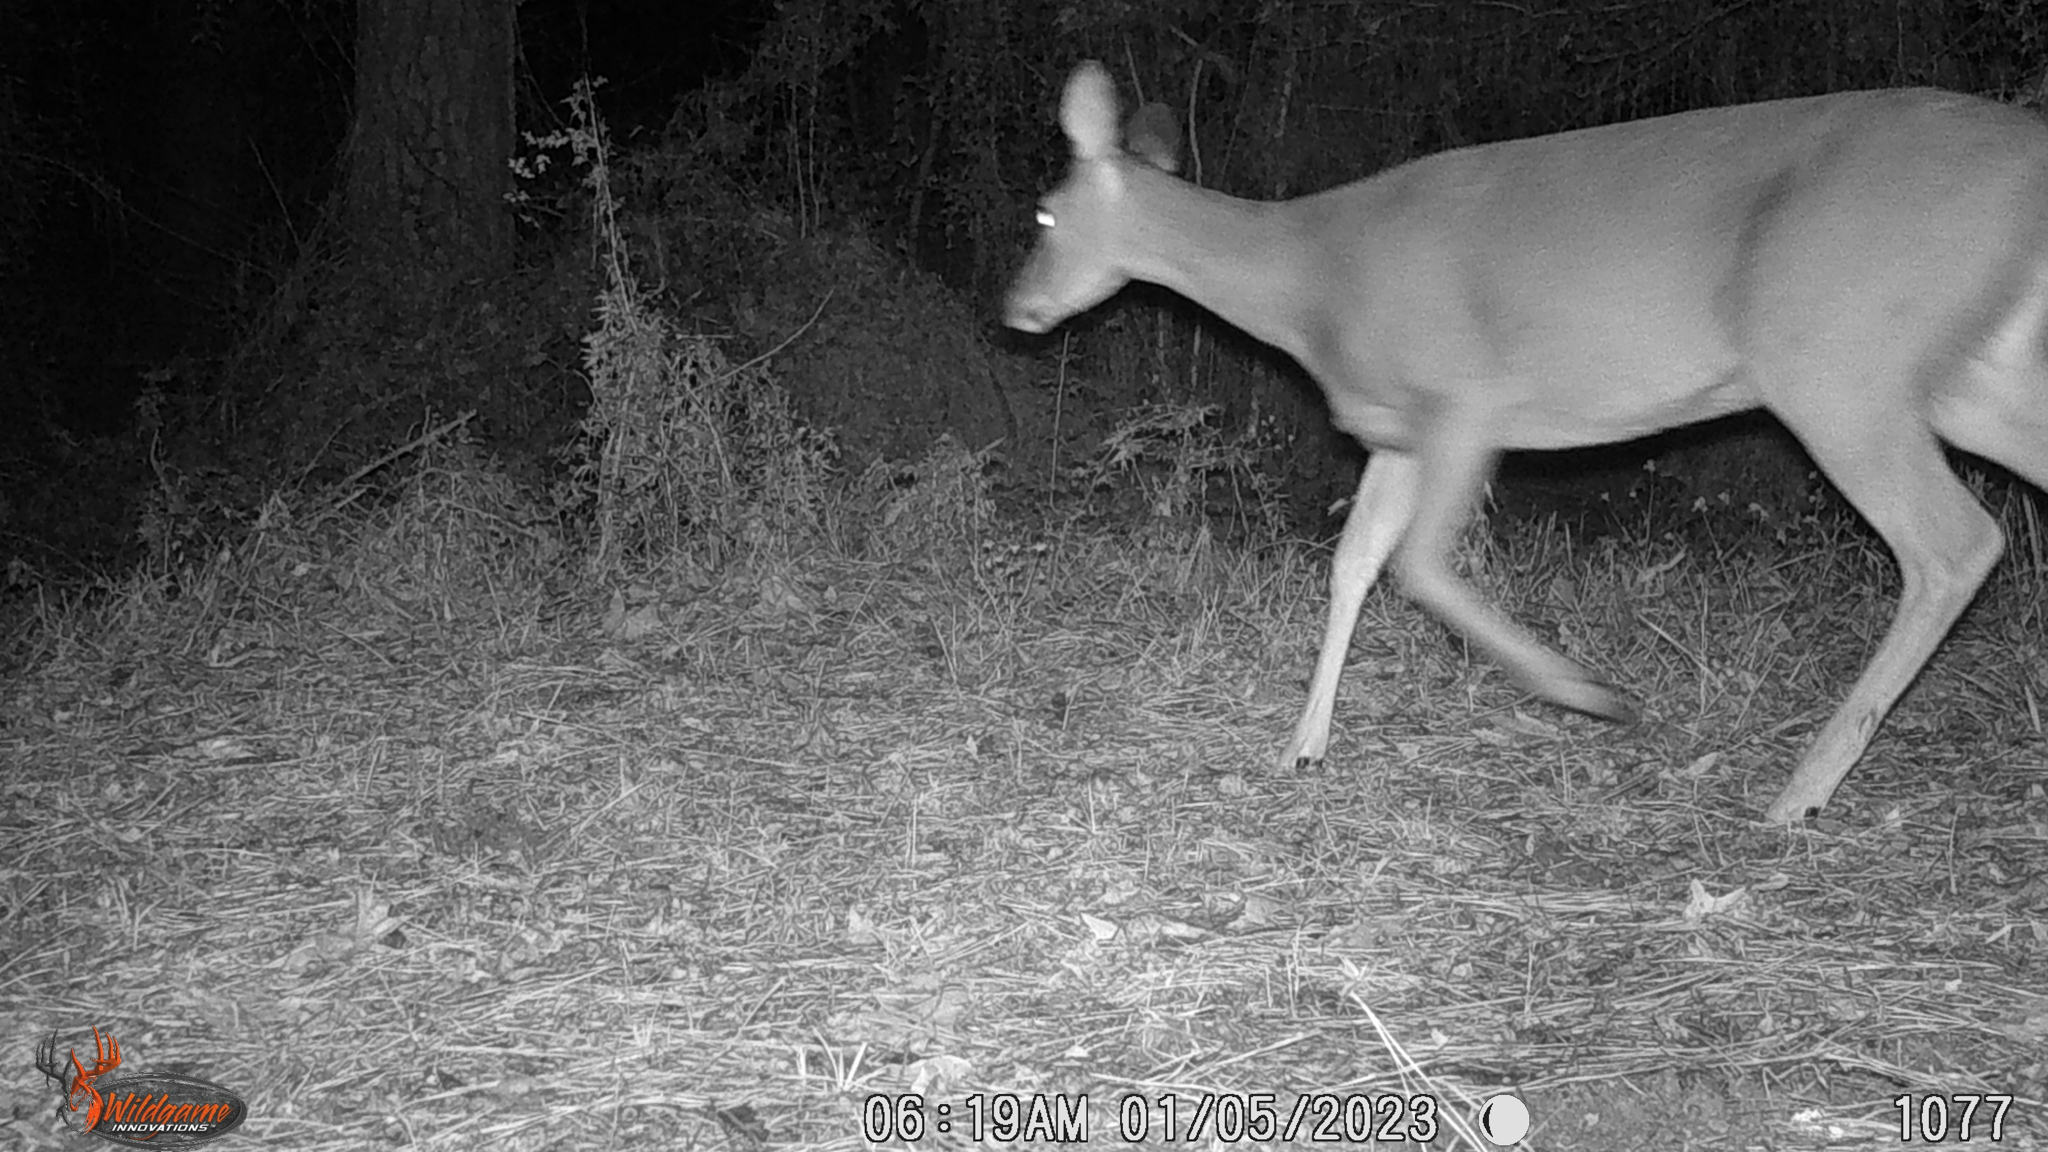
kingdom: Animalia
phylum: Chordata
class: Mammalia
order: Artiodactyla
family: Cervidae
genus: Odocoileus
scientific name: Odocoileus virginianus
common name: White-tailed deer
